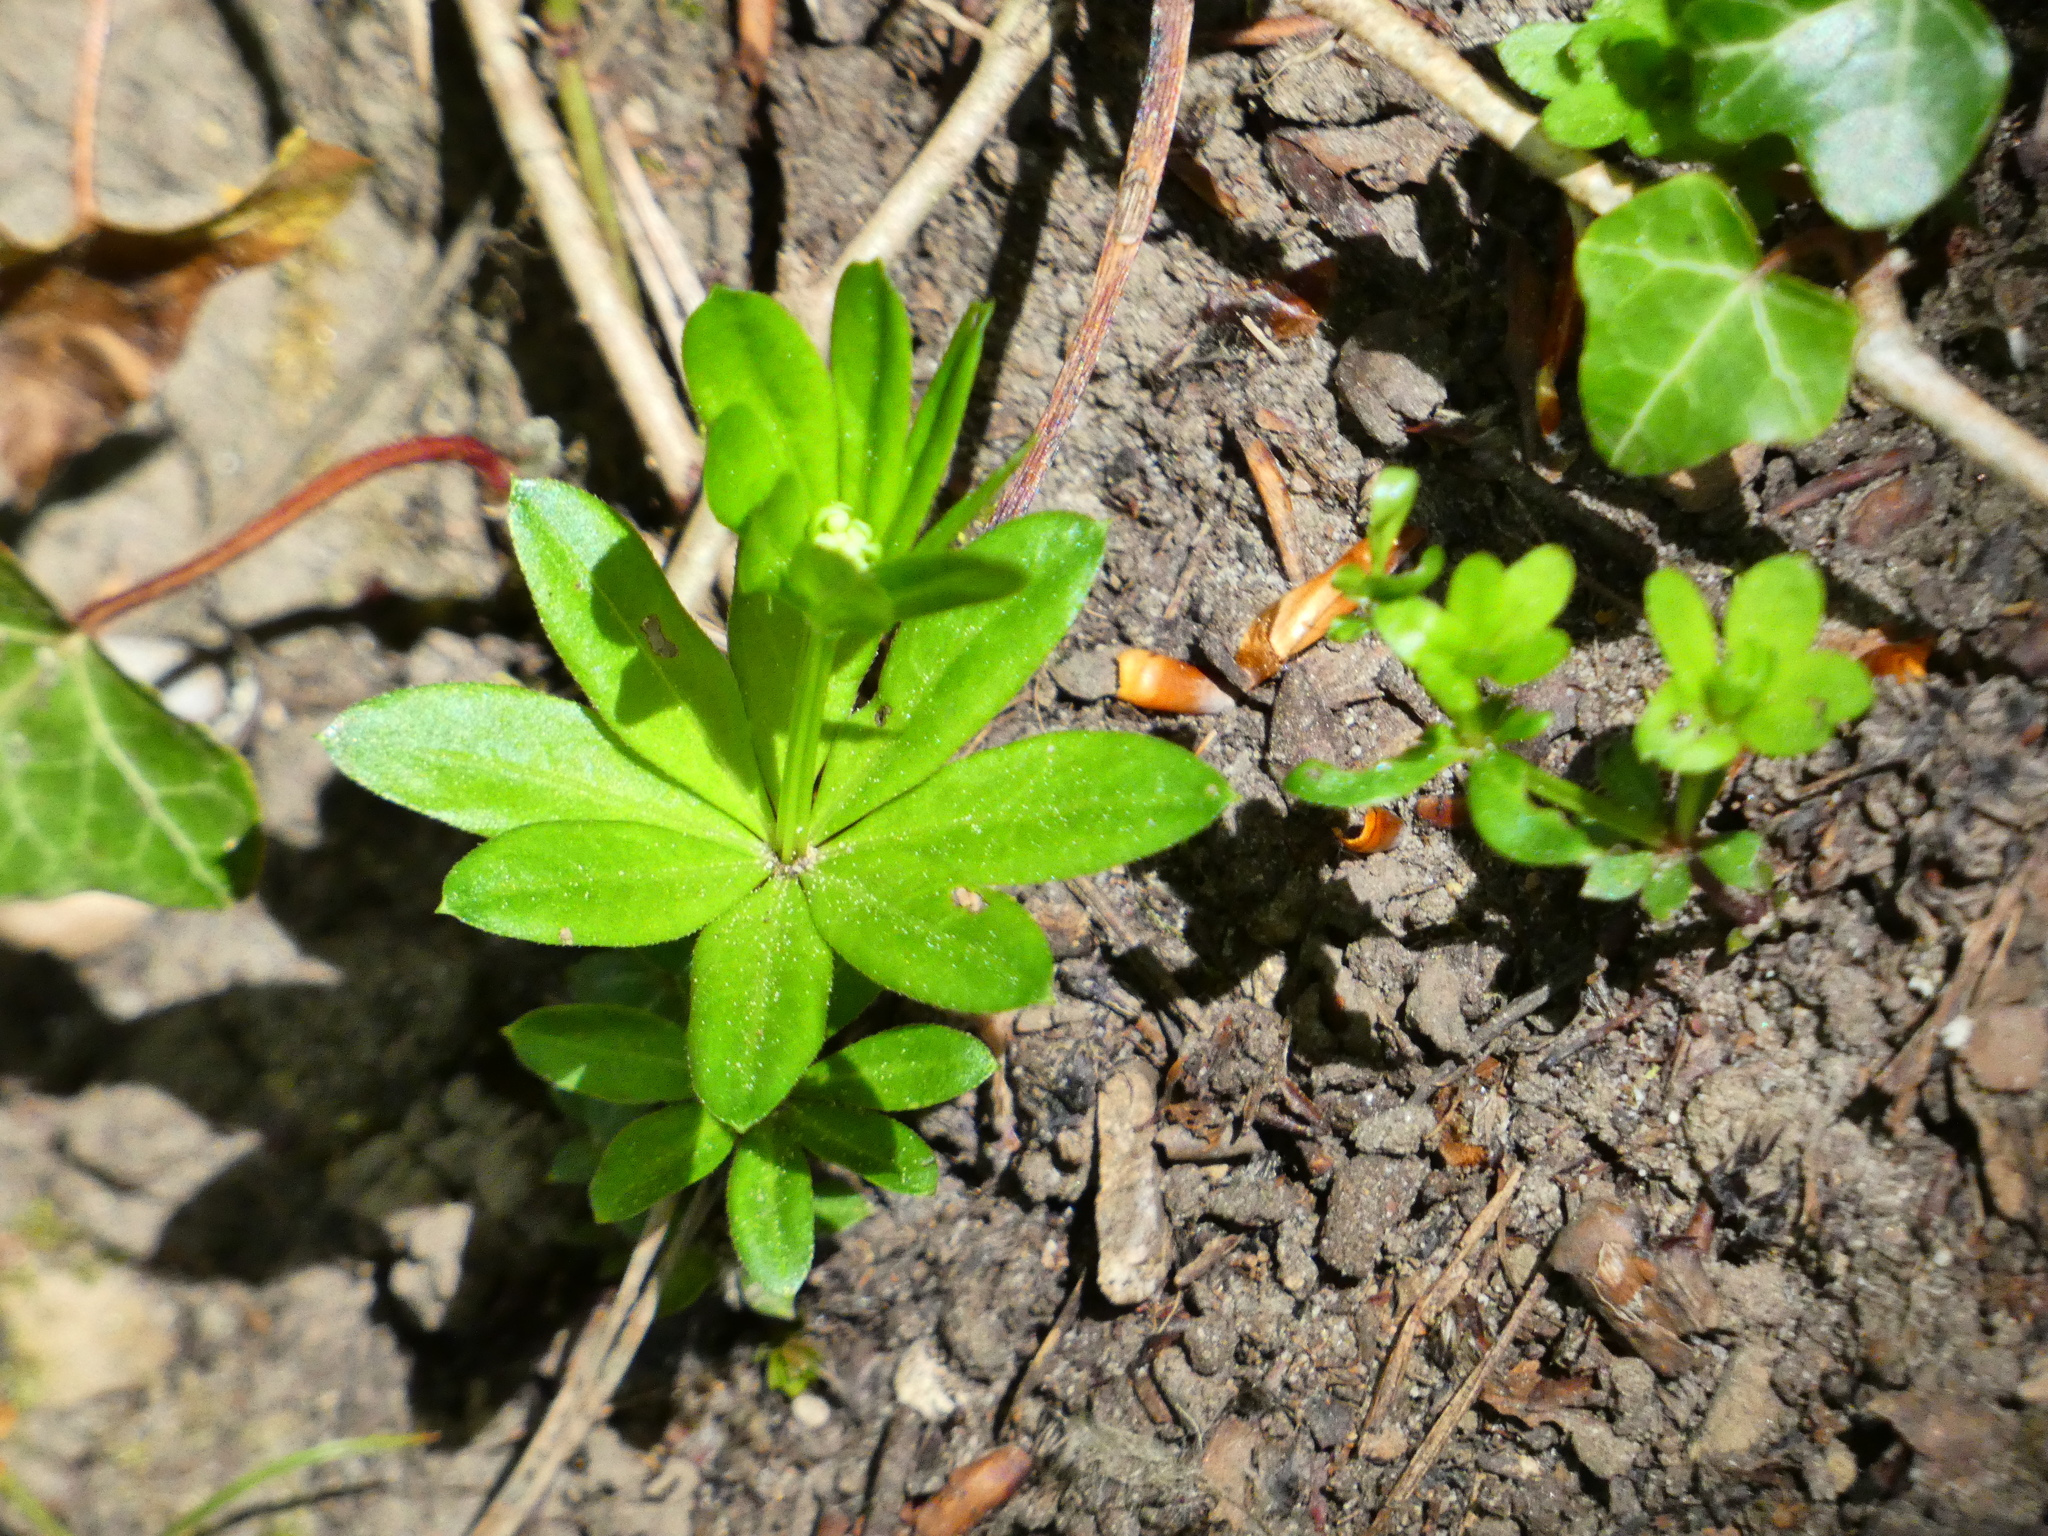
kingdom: Plantae
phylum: Tracheophyta
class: Magnoliopsida
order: Gentianales
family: Rubiaceae
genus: Galium
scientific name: Galium odoratum
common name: Sweet woodruff
